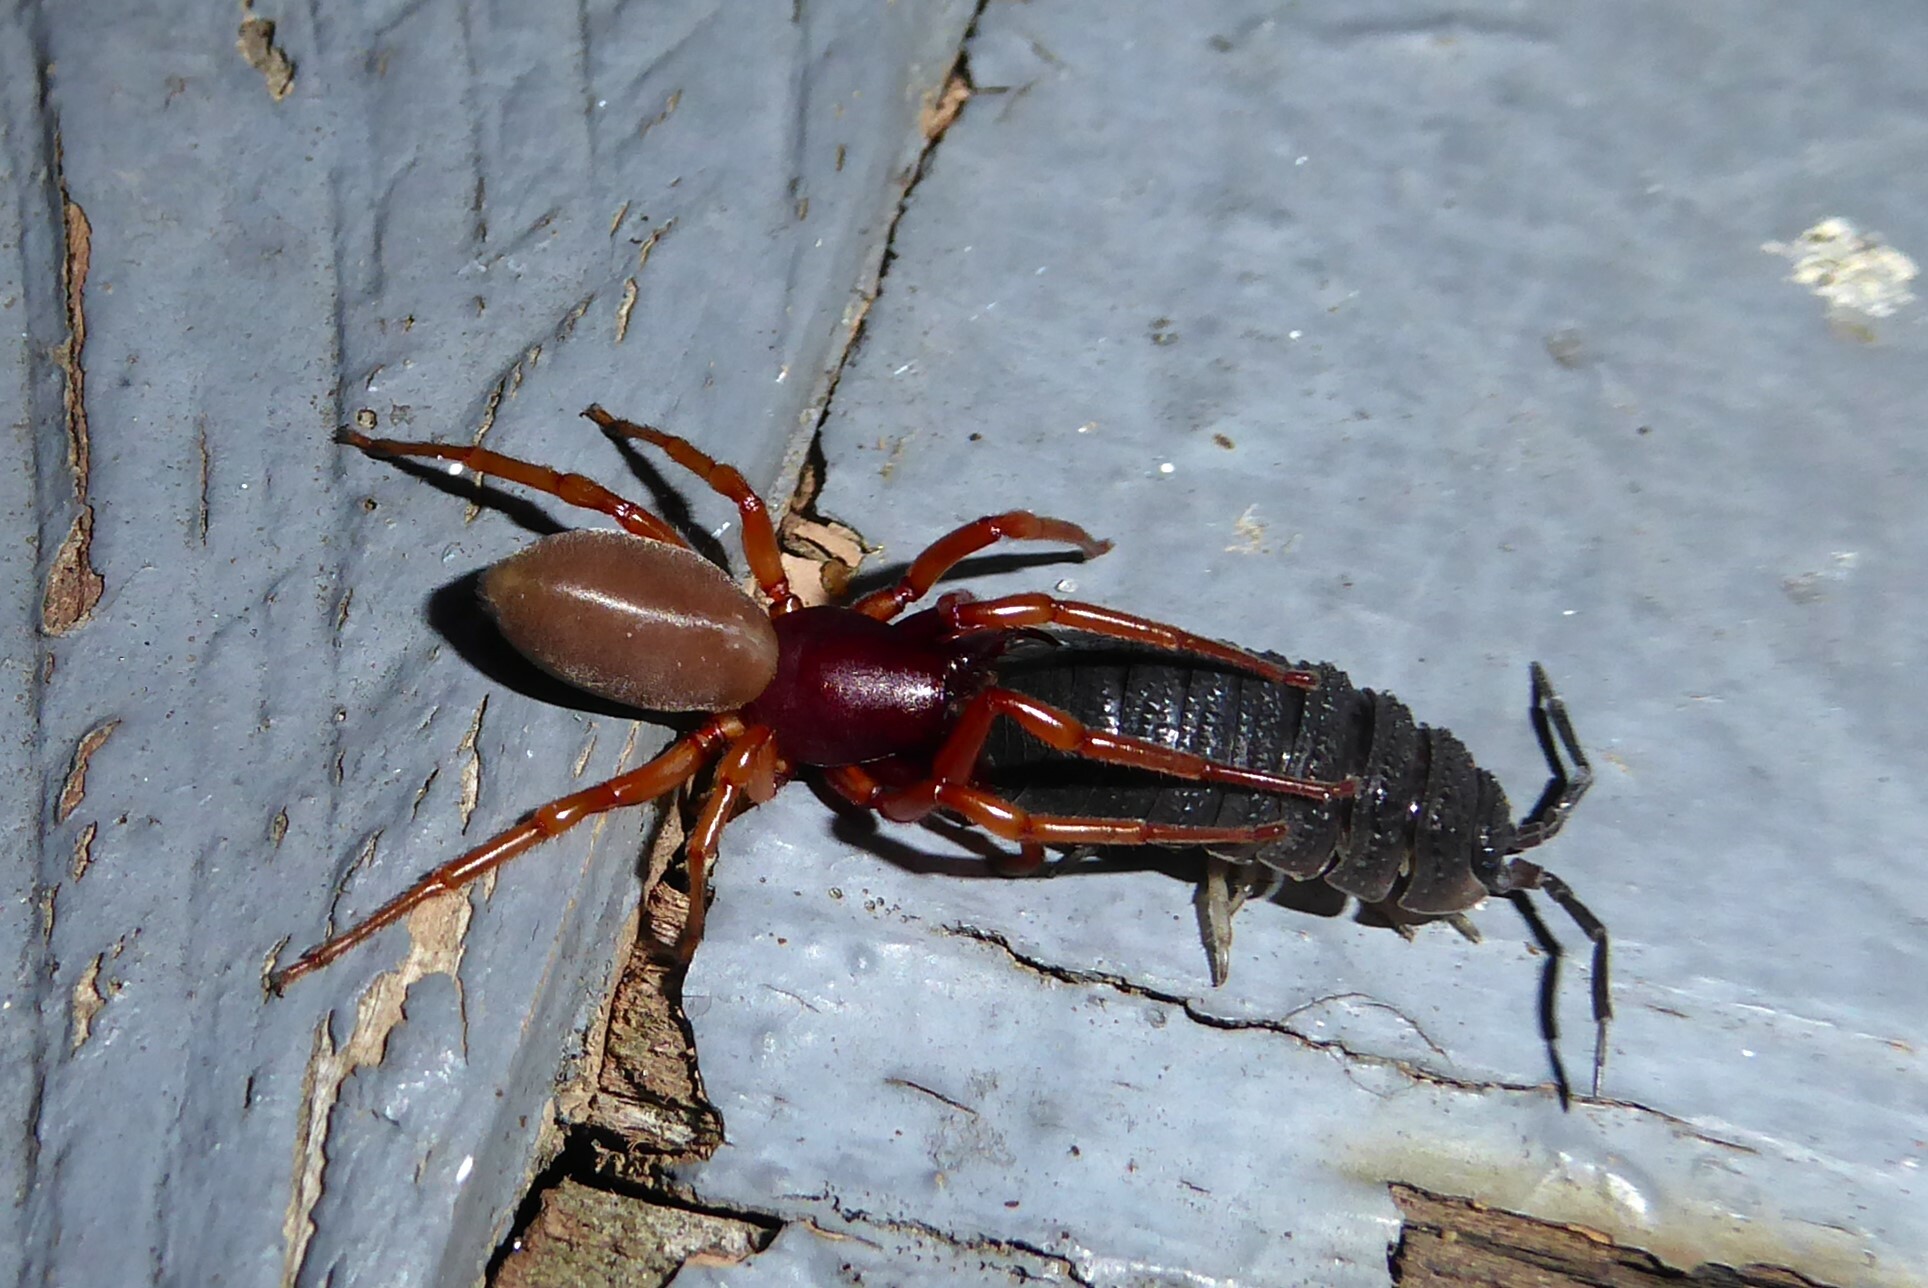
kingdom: Animalia
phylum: Arthropoda
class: Arachnida
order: Araneae
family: Dysderidae
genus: Dysdera
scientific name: Dysdera crocata
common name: Woodlouse spider
